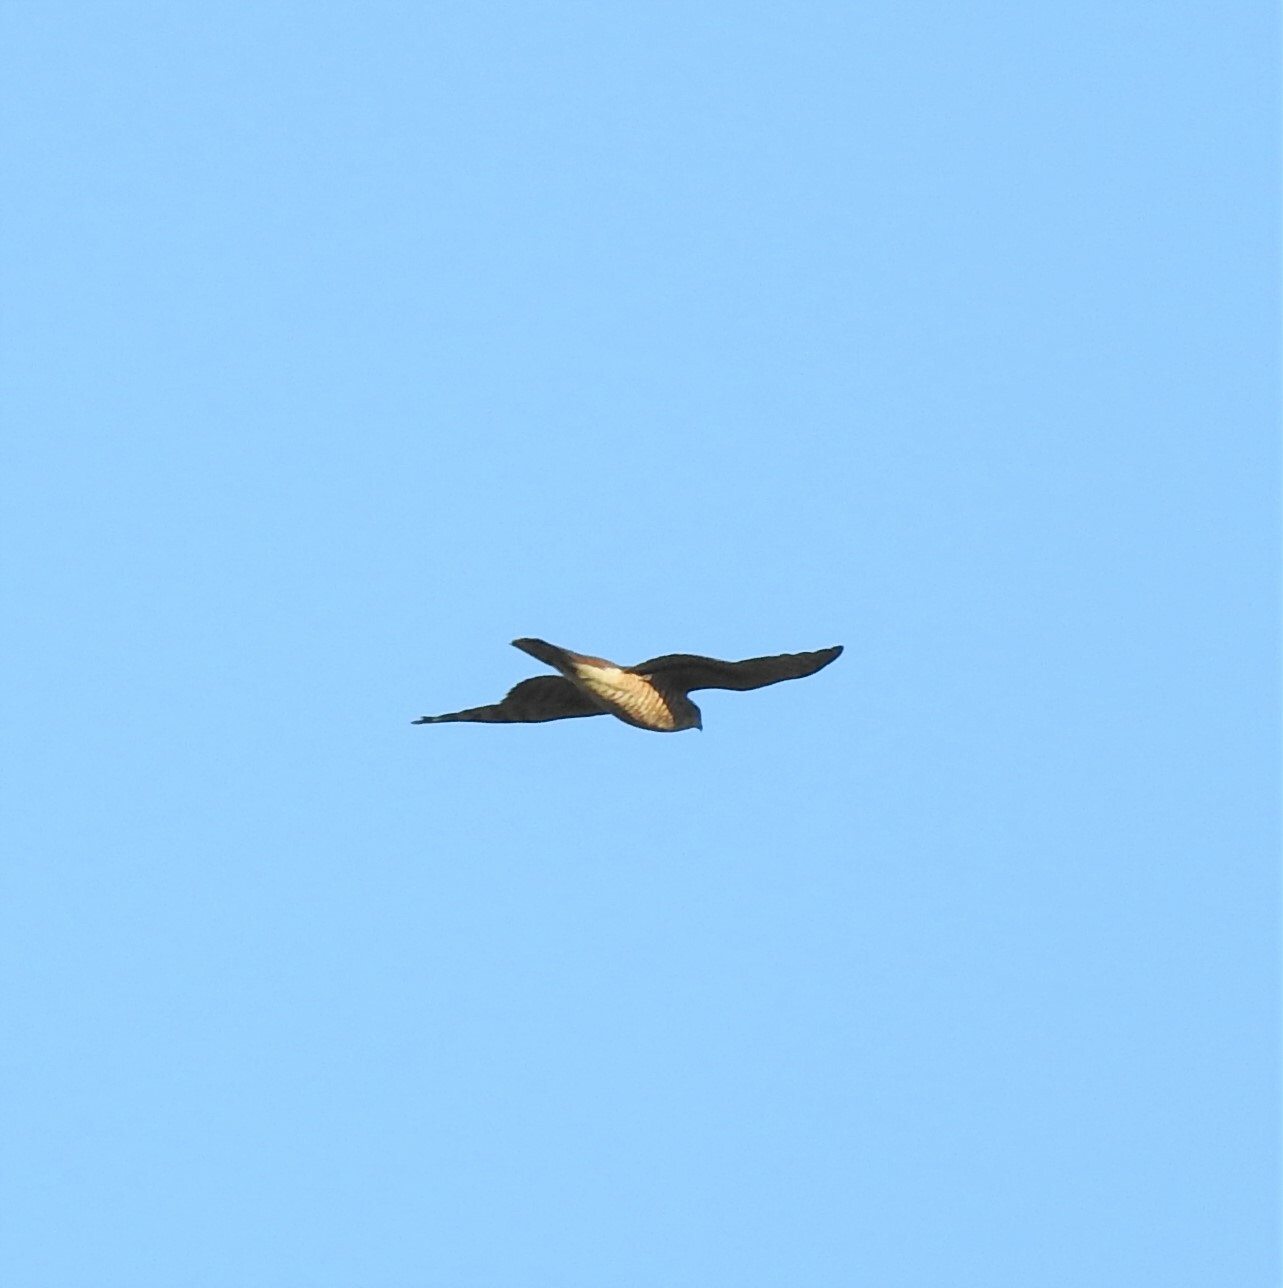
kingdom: Animalia
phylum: Chordata
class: Aves
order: Accipitriformes
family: Accipitridae
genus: Accipiter
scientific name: Accipiter nisus
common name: Eurasian sparrowhawk
